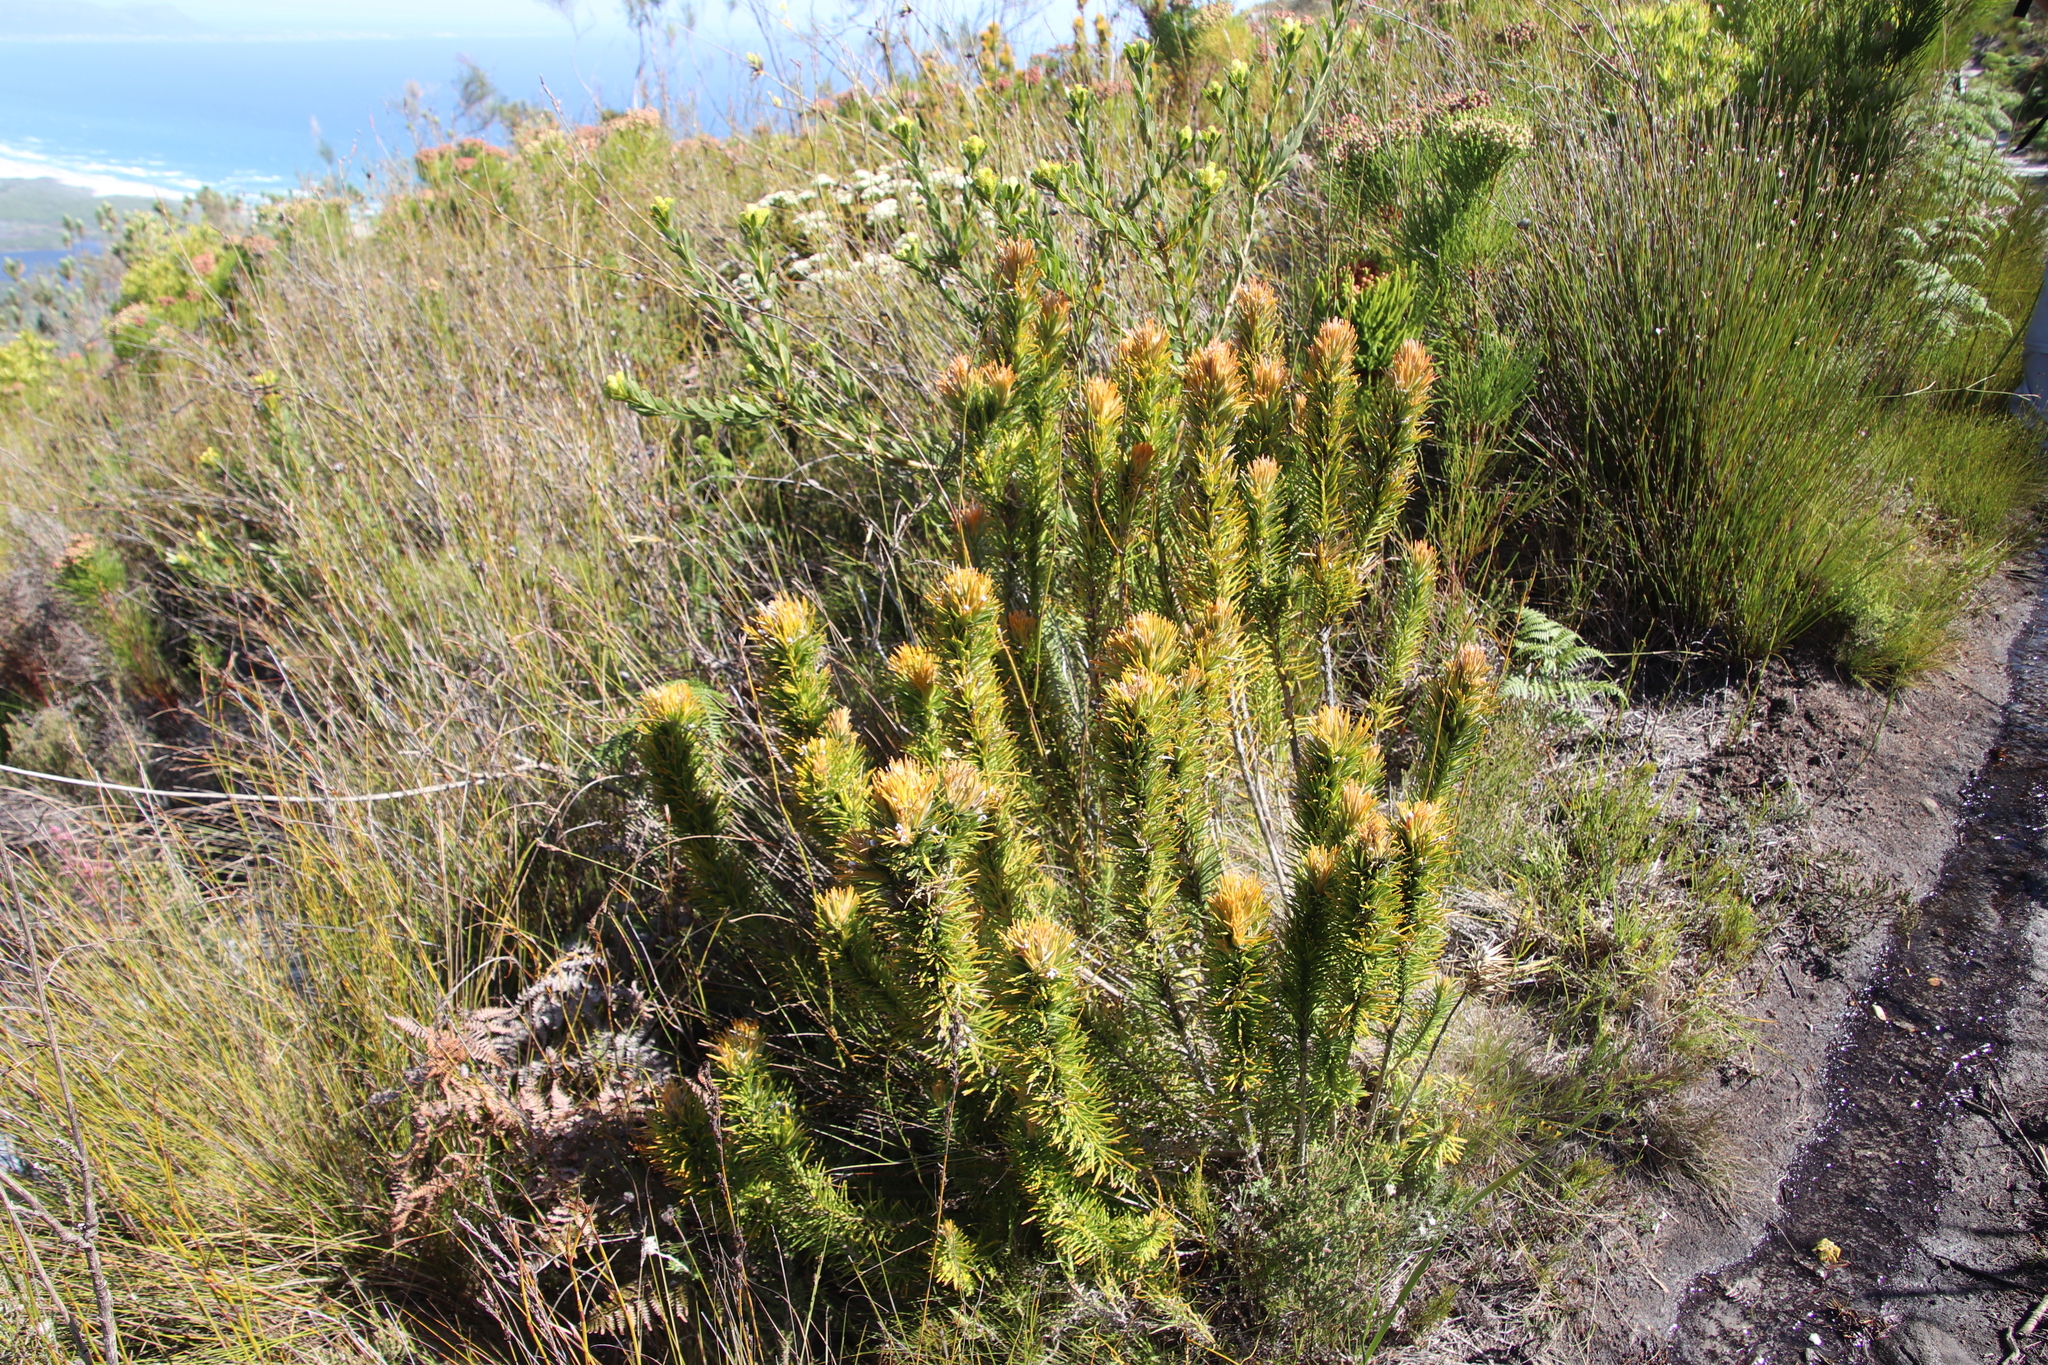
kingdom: Plantae
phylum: Tracheophyta
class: Magnoliopsida
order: Lamiales
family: Stilbaceae
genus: Retzia
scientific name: Retzia capensis
